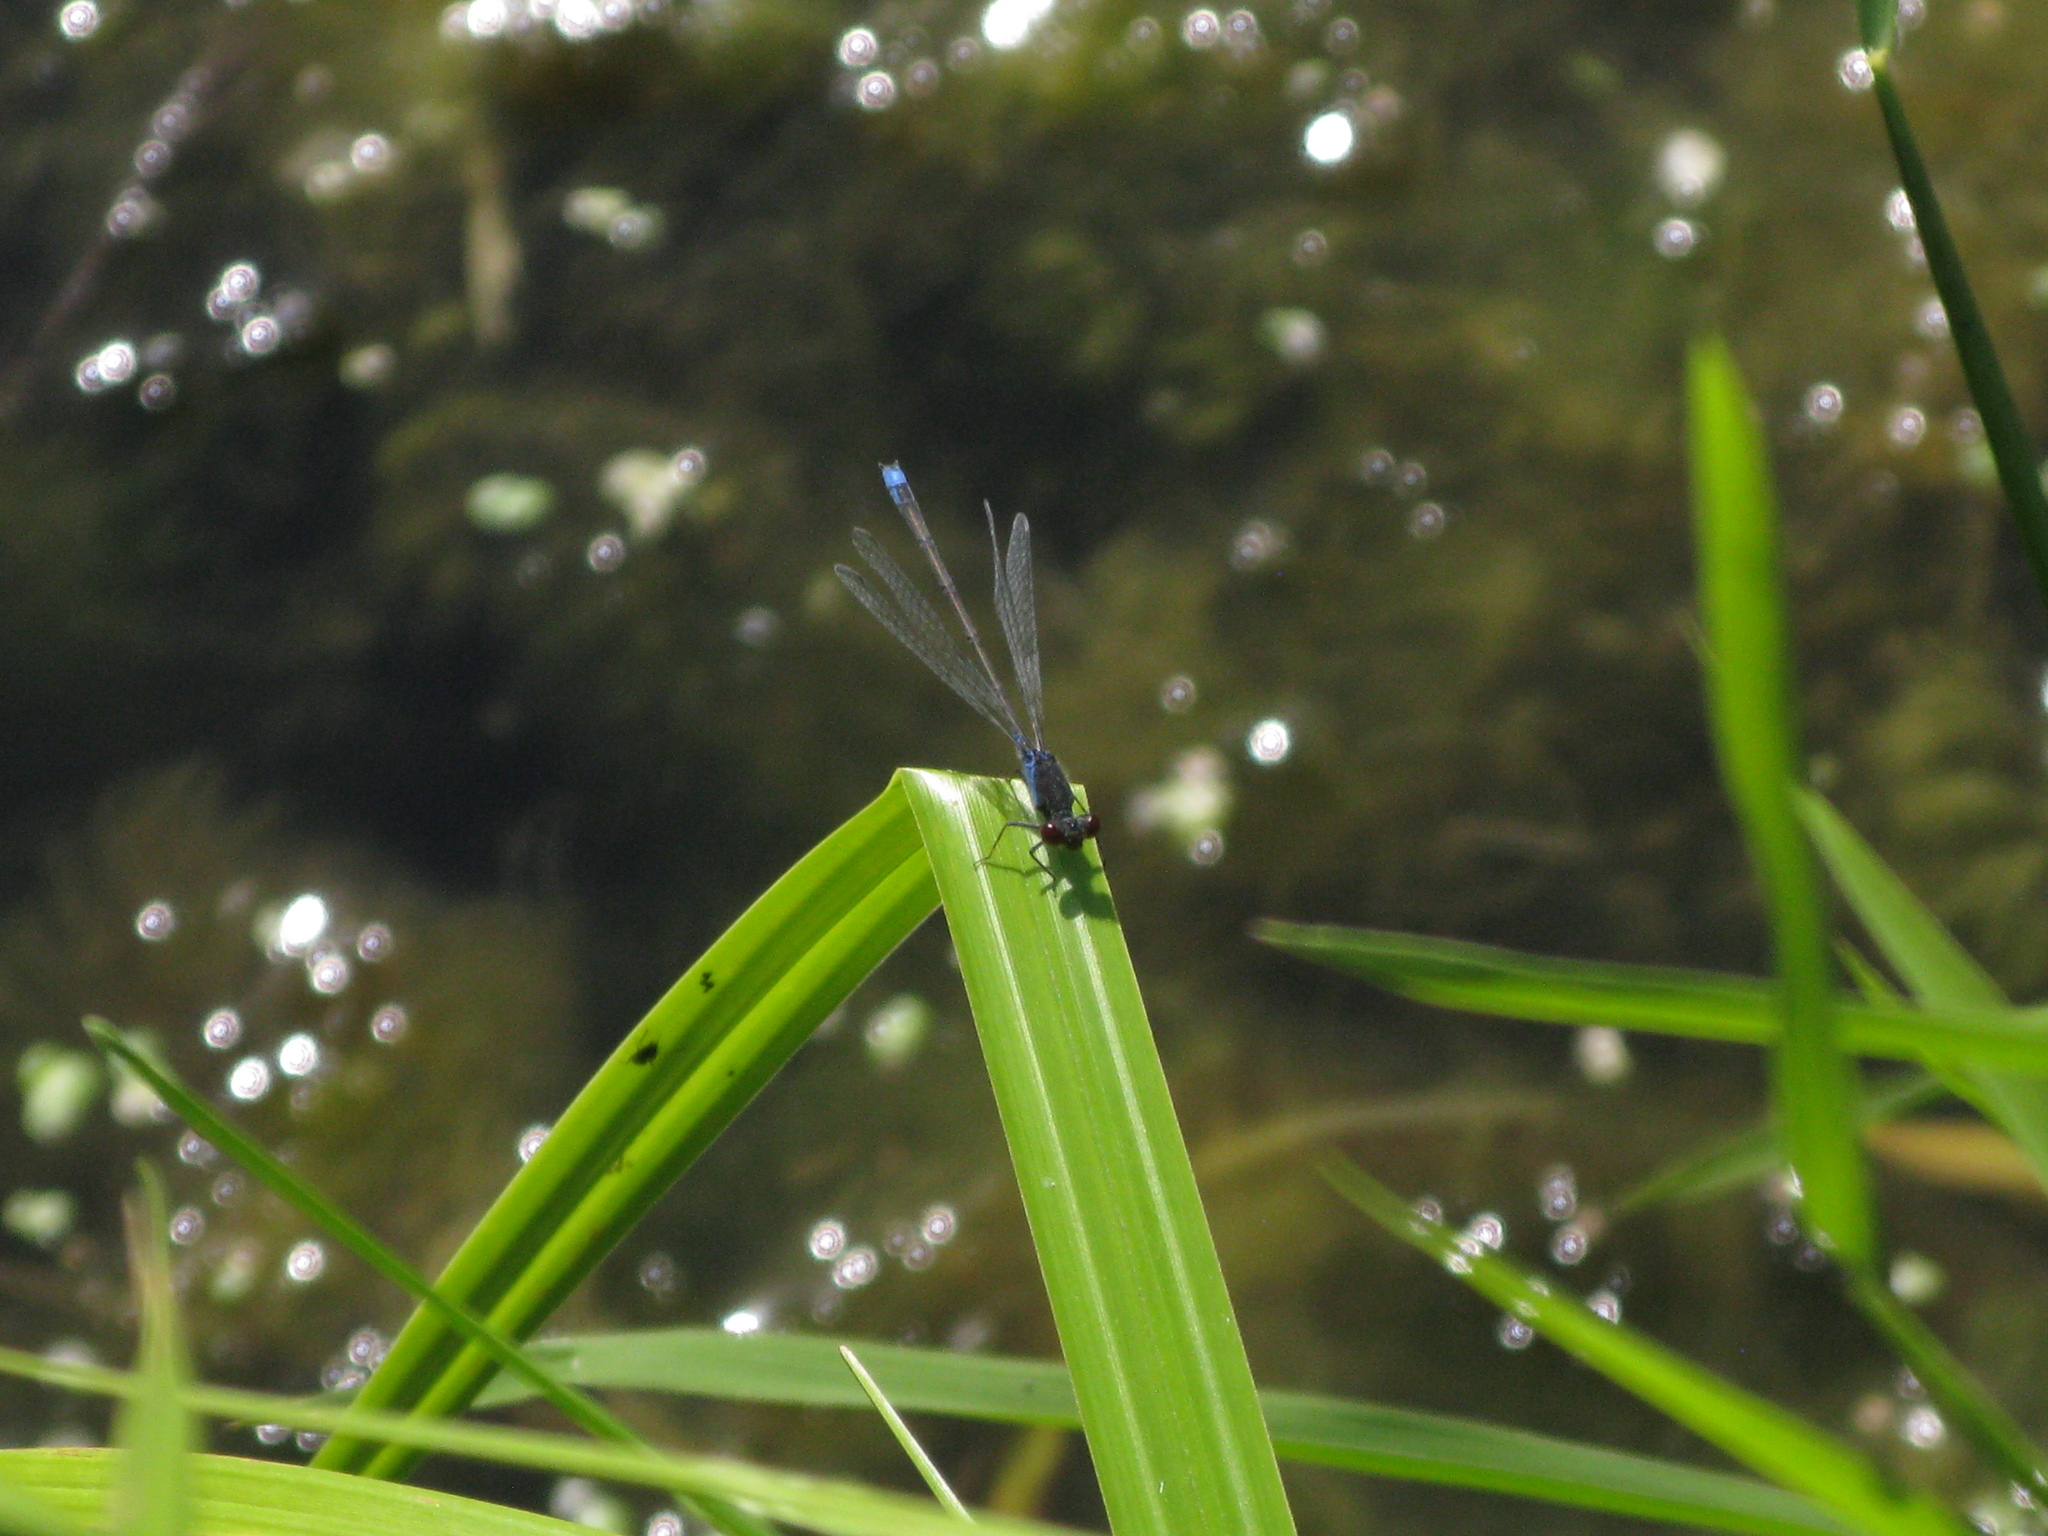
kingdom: Animalia
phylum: Arthropoda
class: Insecta
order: Odonata
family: Coenagrionidae
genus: Erythromma
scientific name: Erythromma viridulum
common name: Small red-eyed damselfly
